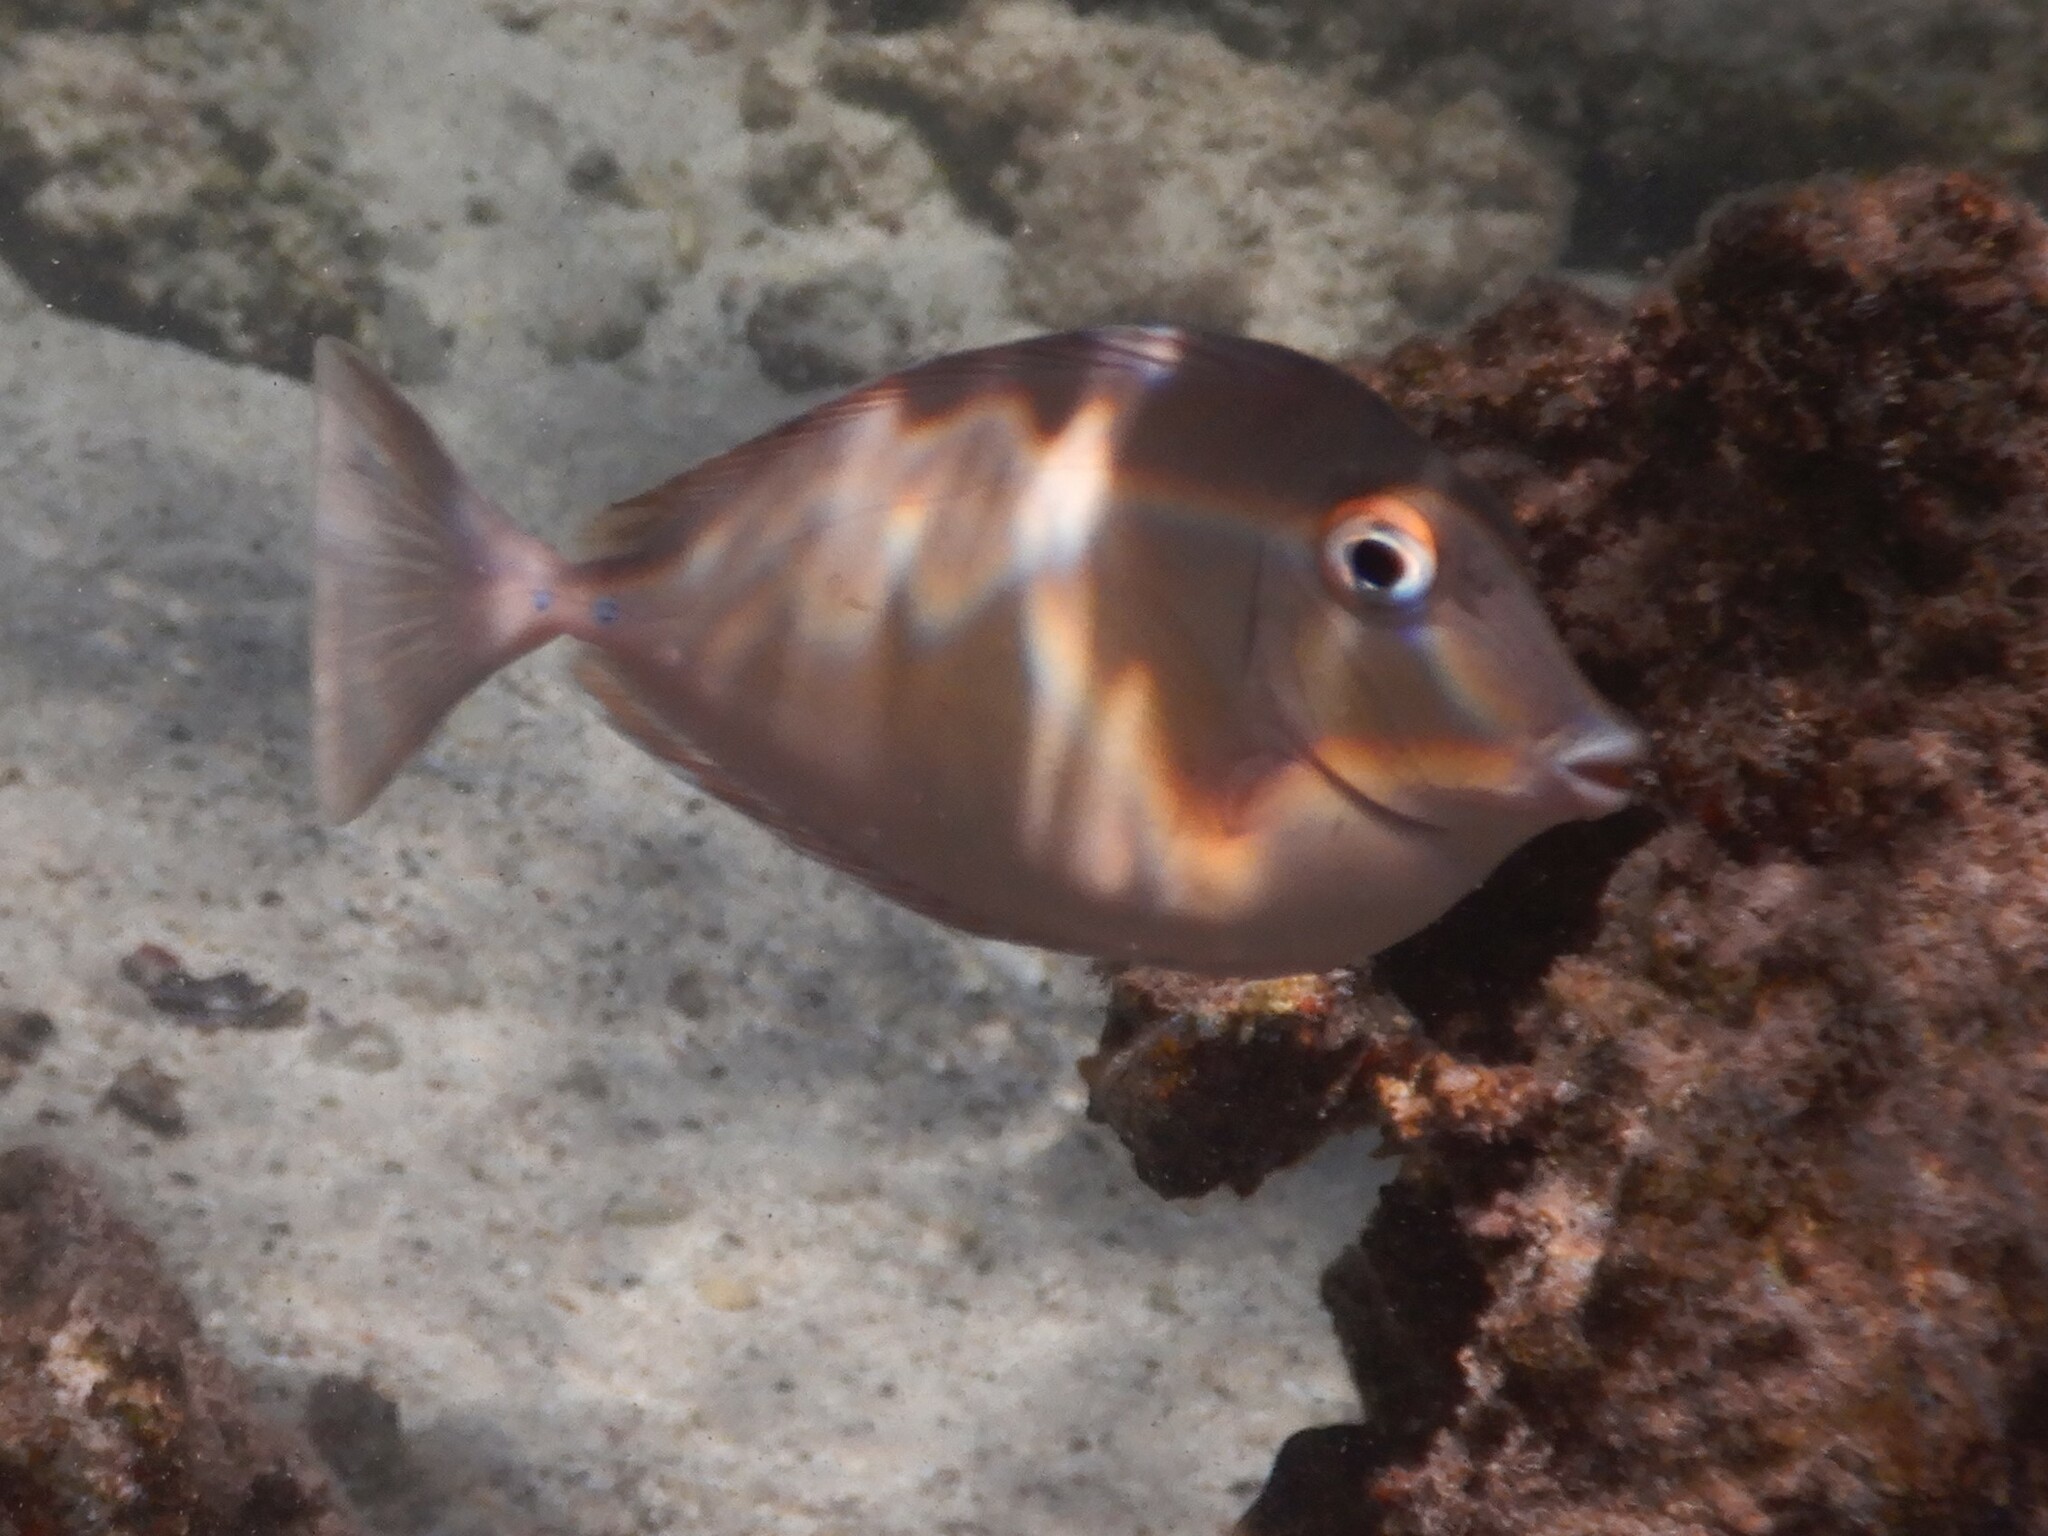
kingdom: Animalia
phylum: Chordata
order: Perciformes
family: Acanthuridae
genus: Naso
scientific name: Naso unicornis
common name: Bluespine unicornfish
